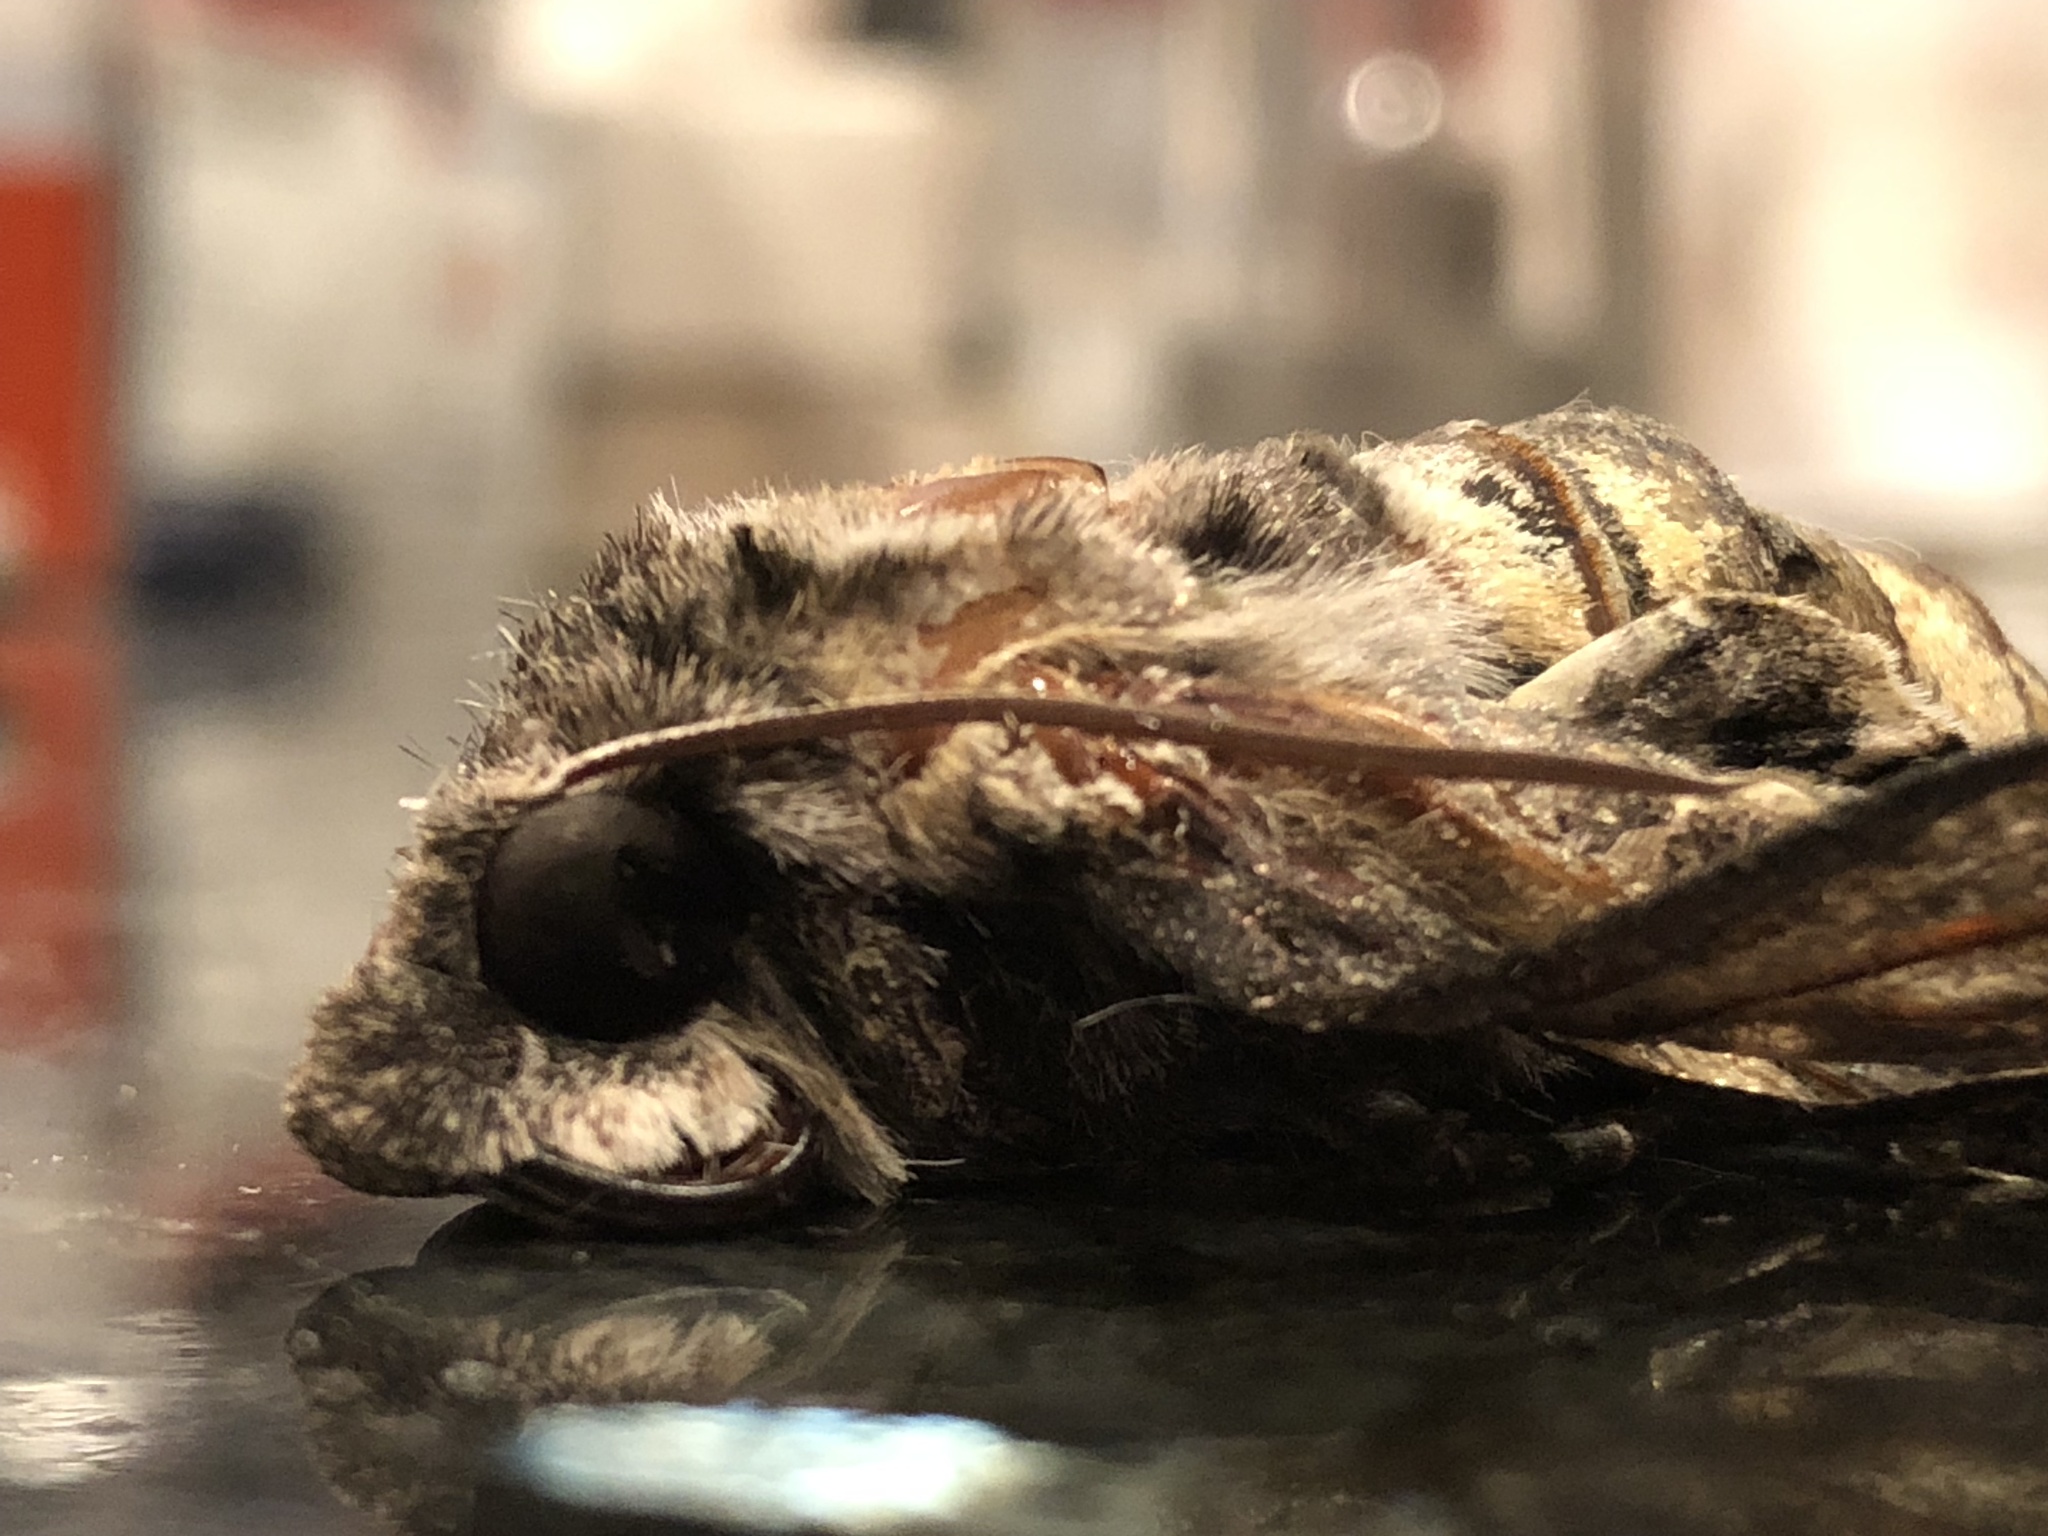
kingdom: Animalia
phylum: Arthropoda
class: Insecta
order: Lepidoptera
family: Sphingidae
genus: Erinnyis
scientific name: Erinnyis ello
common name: Ello sphinx
